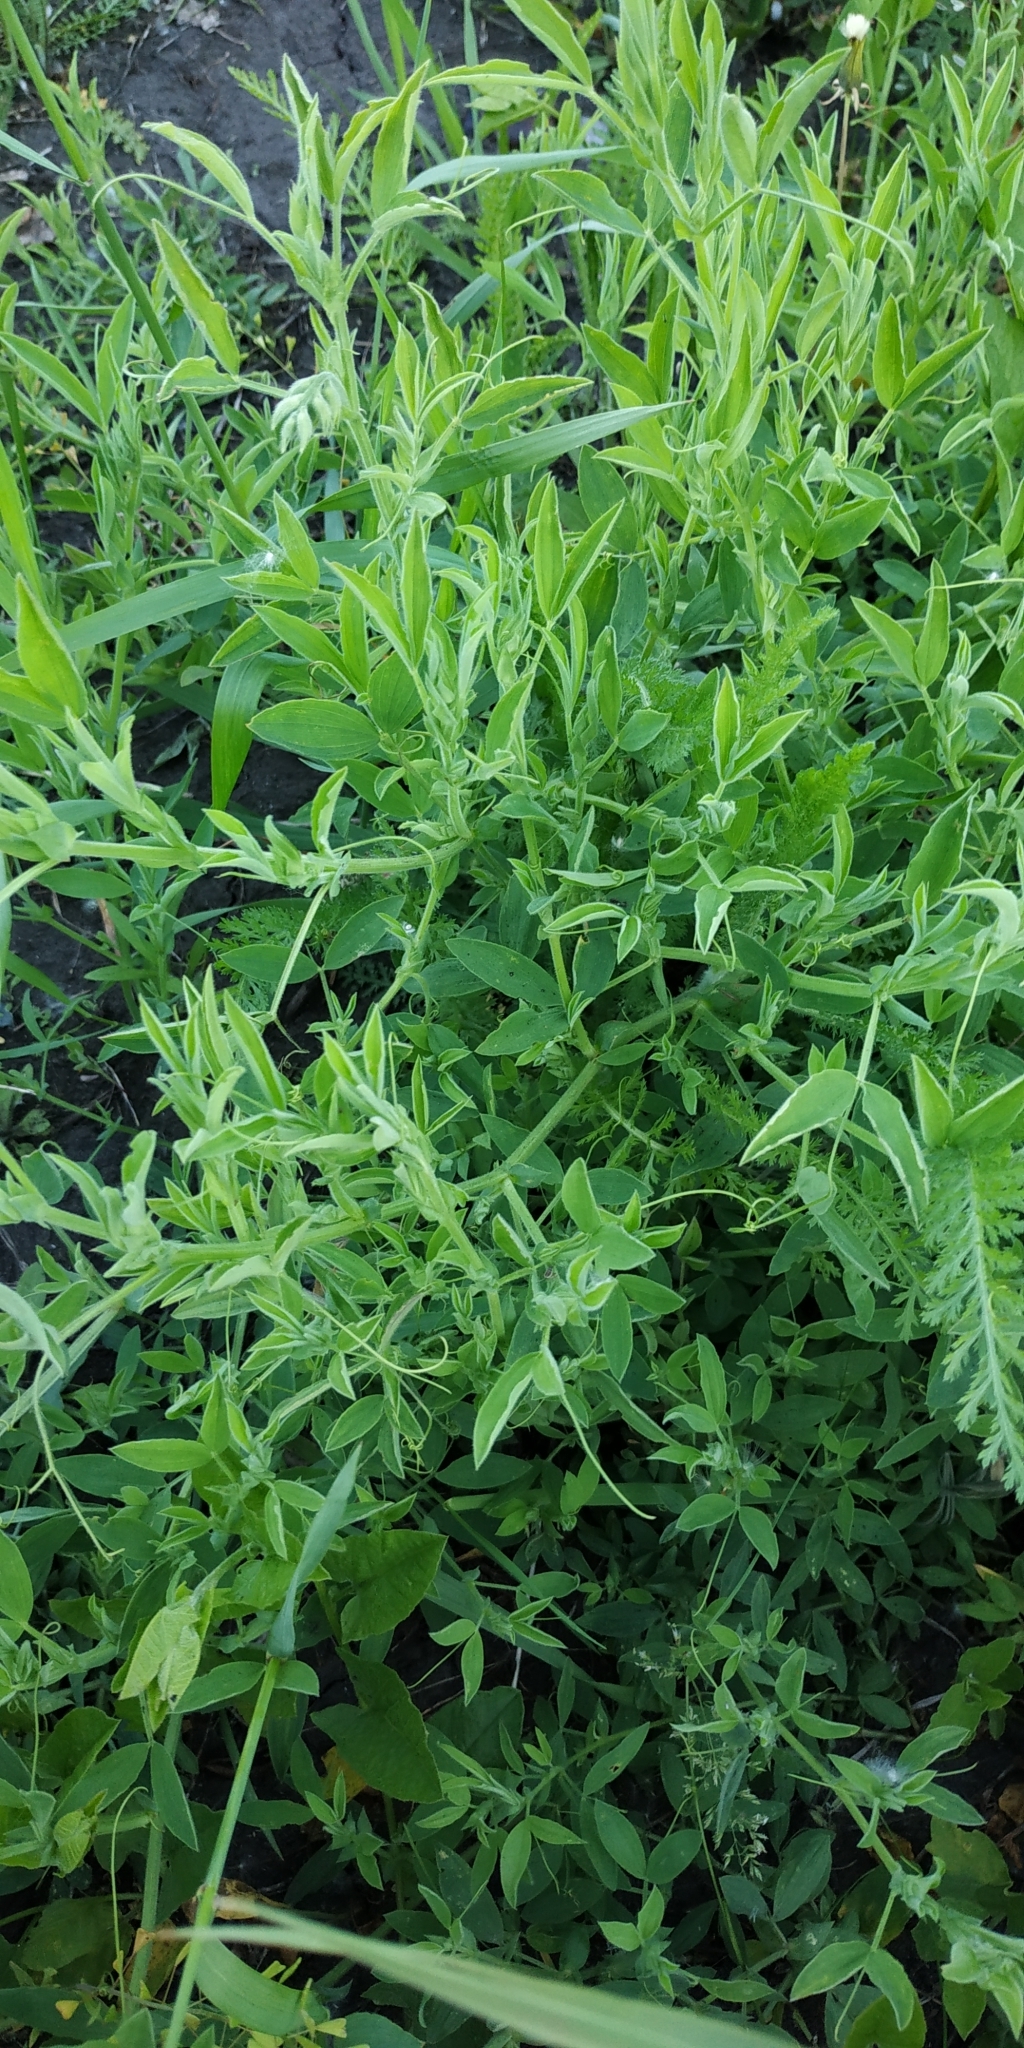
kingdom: Plantae
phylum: Tracheophyta
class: Magnoliopsida
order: Fabales
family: Fabaceae
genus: Lathyrus
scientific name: Lathyrus pratensis
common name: Meadow vetchling
